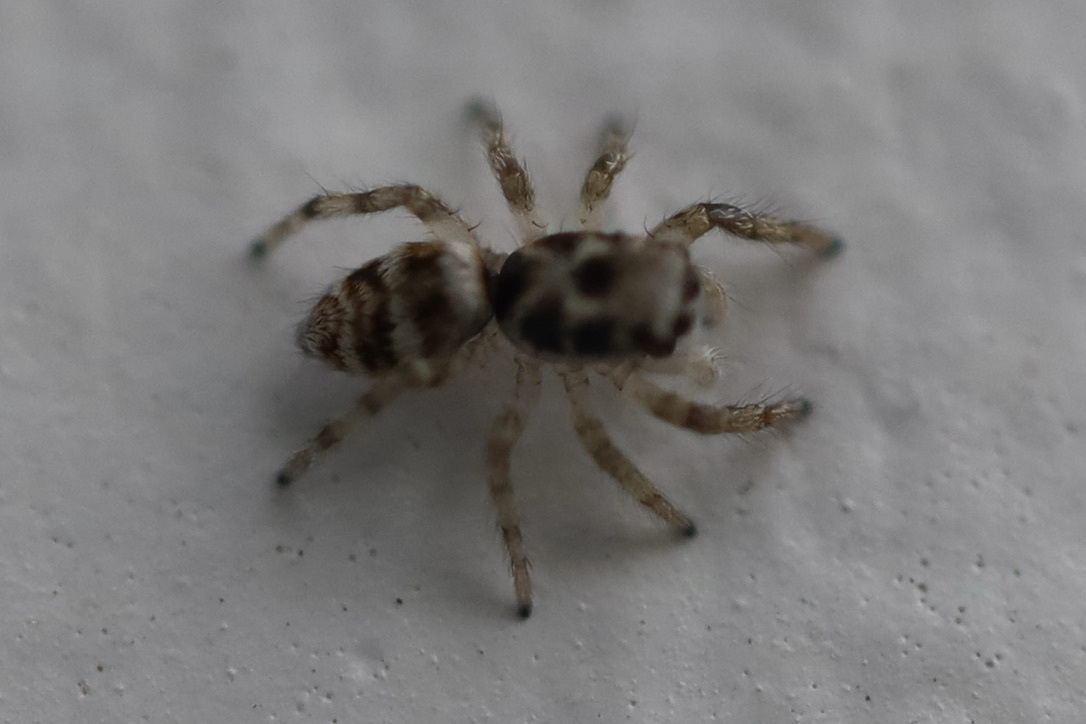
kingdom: Animalia
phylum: Arthropoda
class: Arachnida
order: Araneae
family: Salticidae
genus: Salticus
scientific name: Salticus scenicus
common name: Zebra jumper
